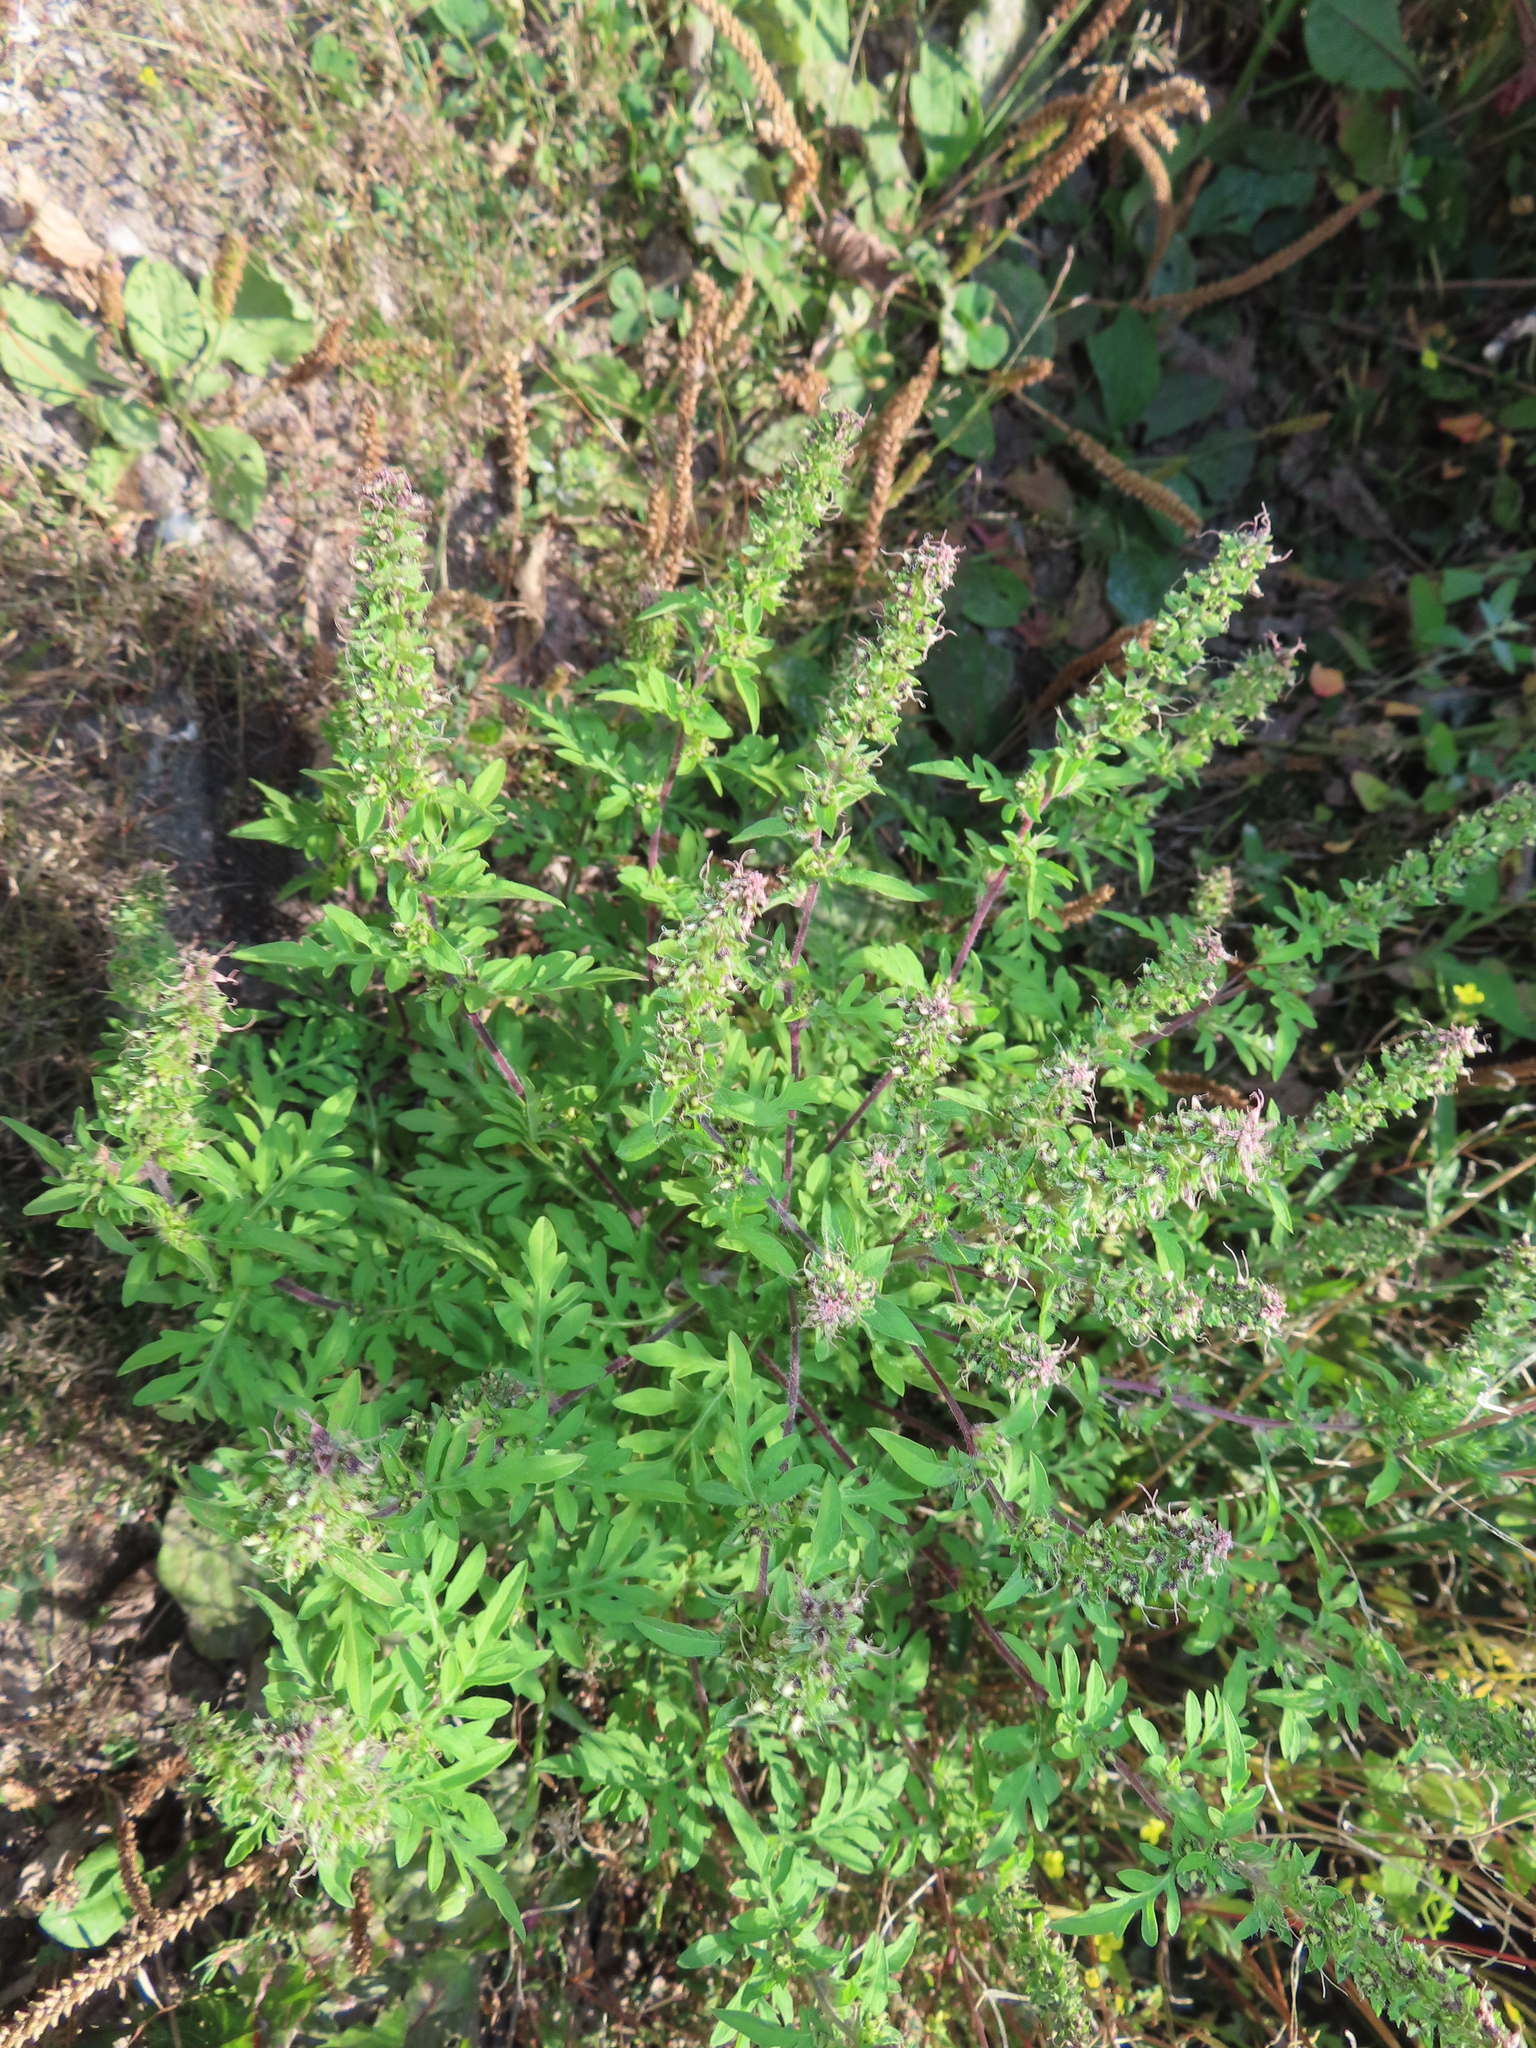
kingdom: Plantae
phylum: Tracheophyta
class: Magnoliopsida
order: Asterales
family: Asteraceae
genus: Ambrosia
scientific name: Ambrosia artemisiifolia
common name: Annual ragweed
